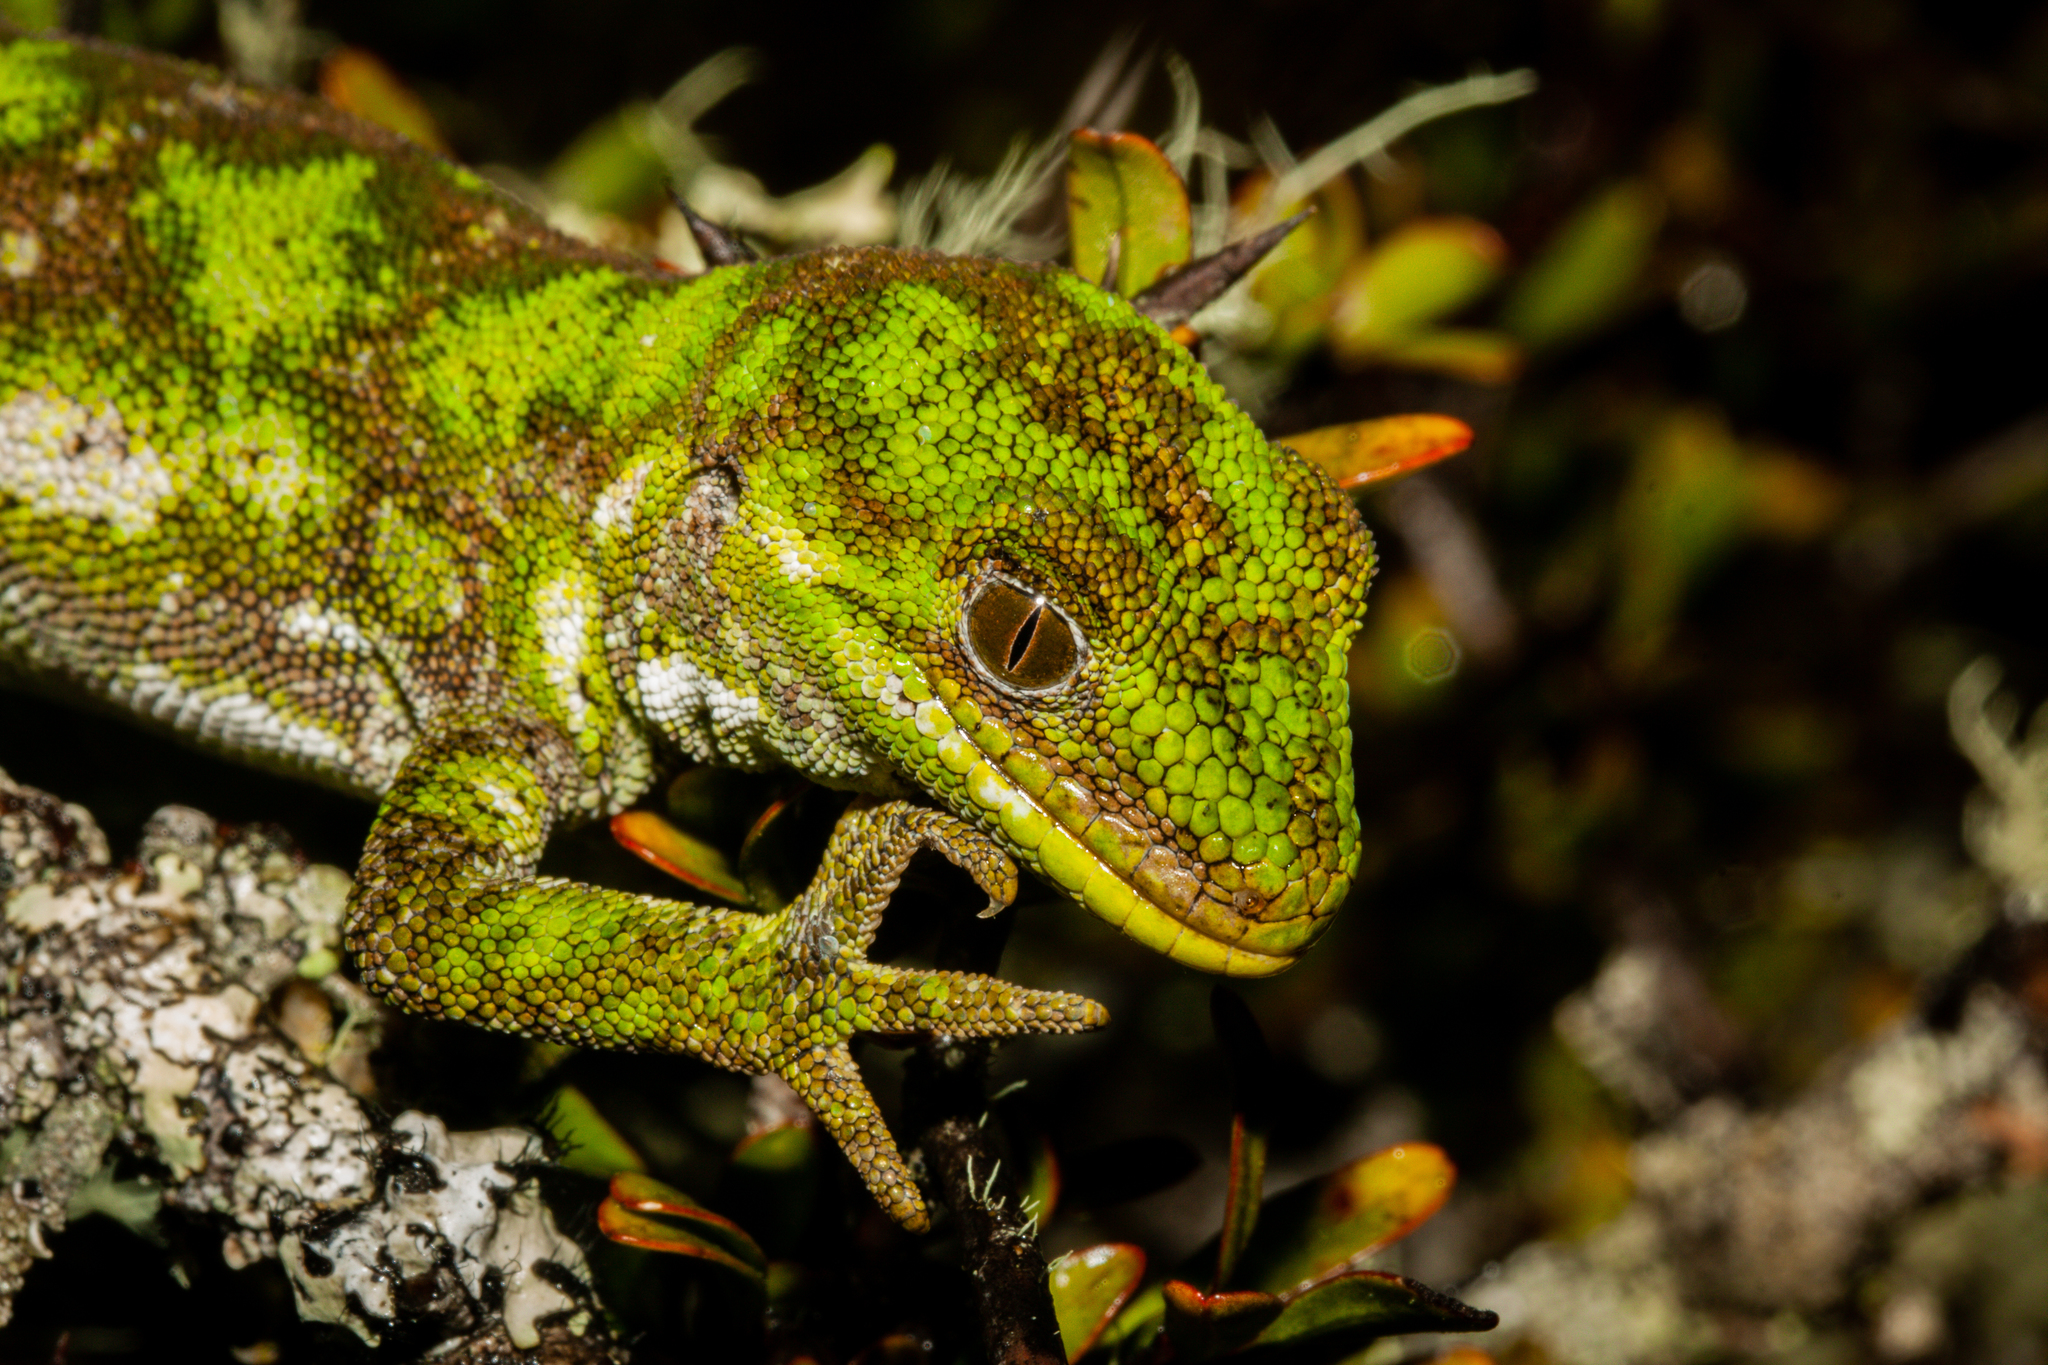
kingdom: Animalia
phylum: Chordata
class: Squamata
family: Diplodactylidae
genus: Naultinus
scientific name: Naultinus stellatus
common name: Nelson green gecko
